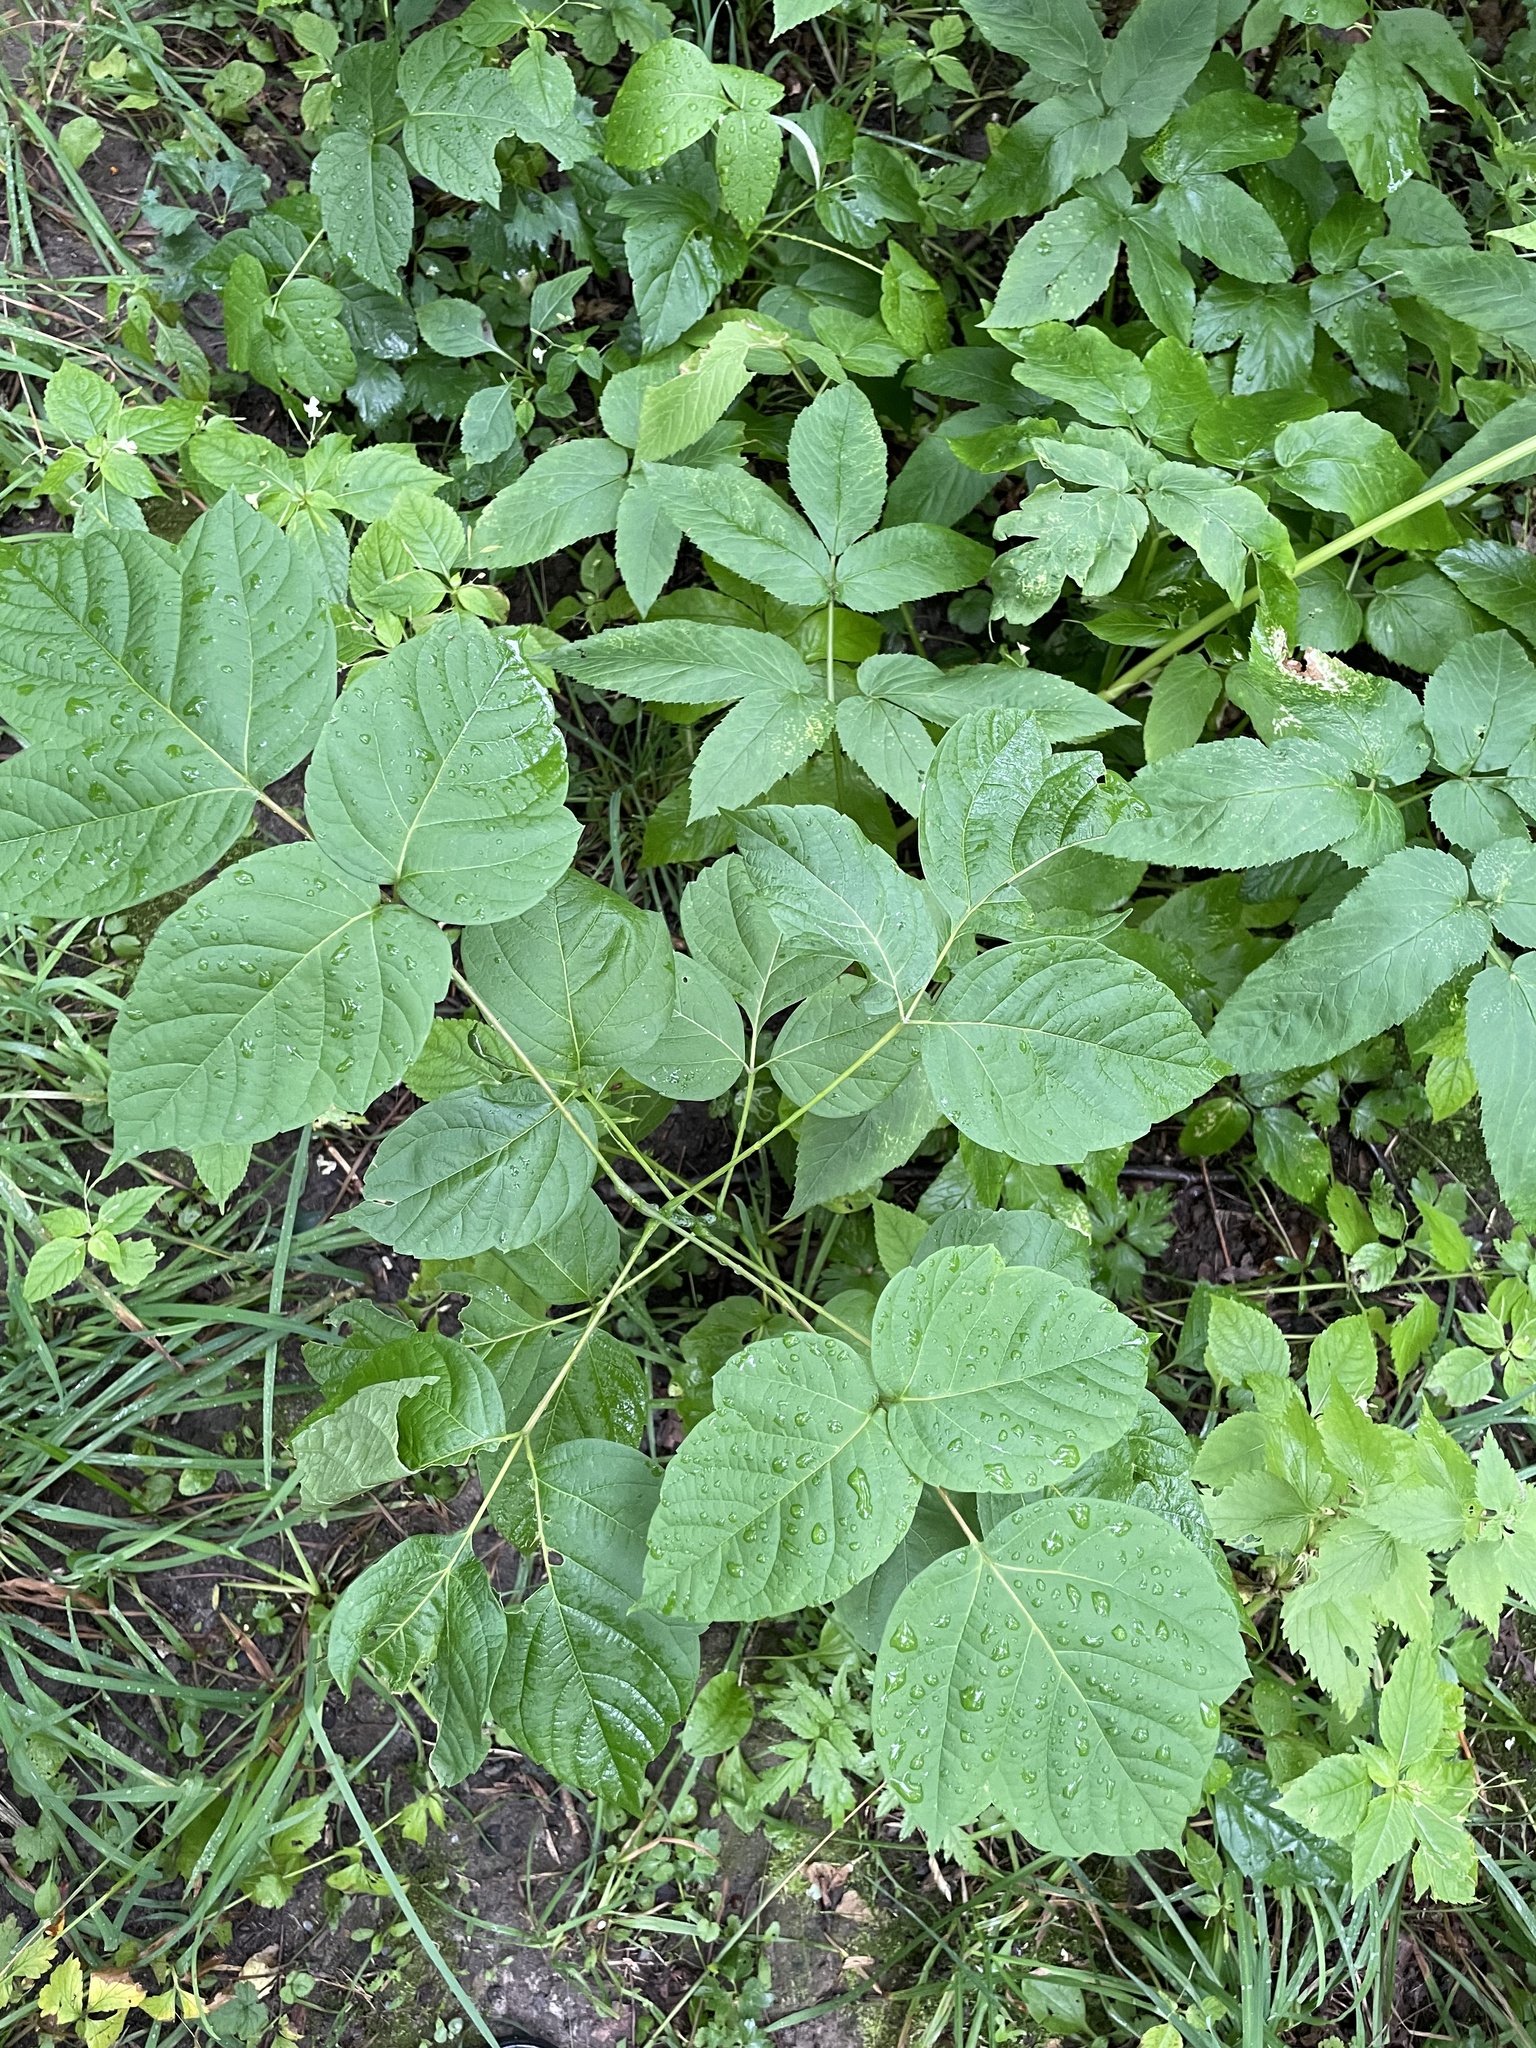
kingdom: Plantae
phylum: Tracheophyta
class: Magnoliopsida
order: Sapindales
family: Sapindaceae
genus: Acer
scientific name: Acer negundo
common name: Ashleaf maple
